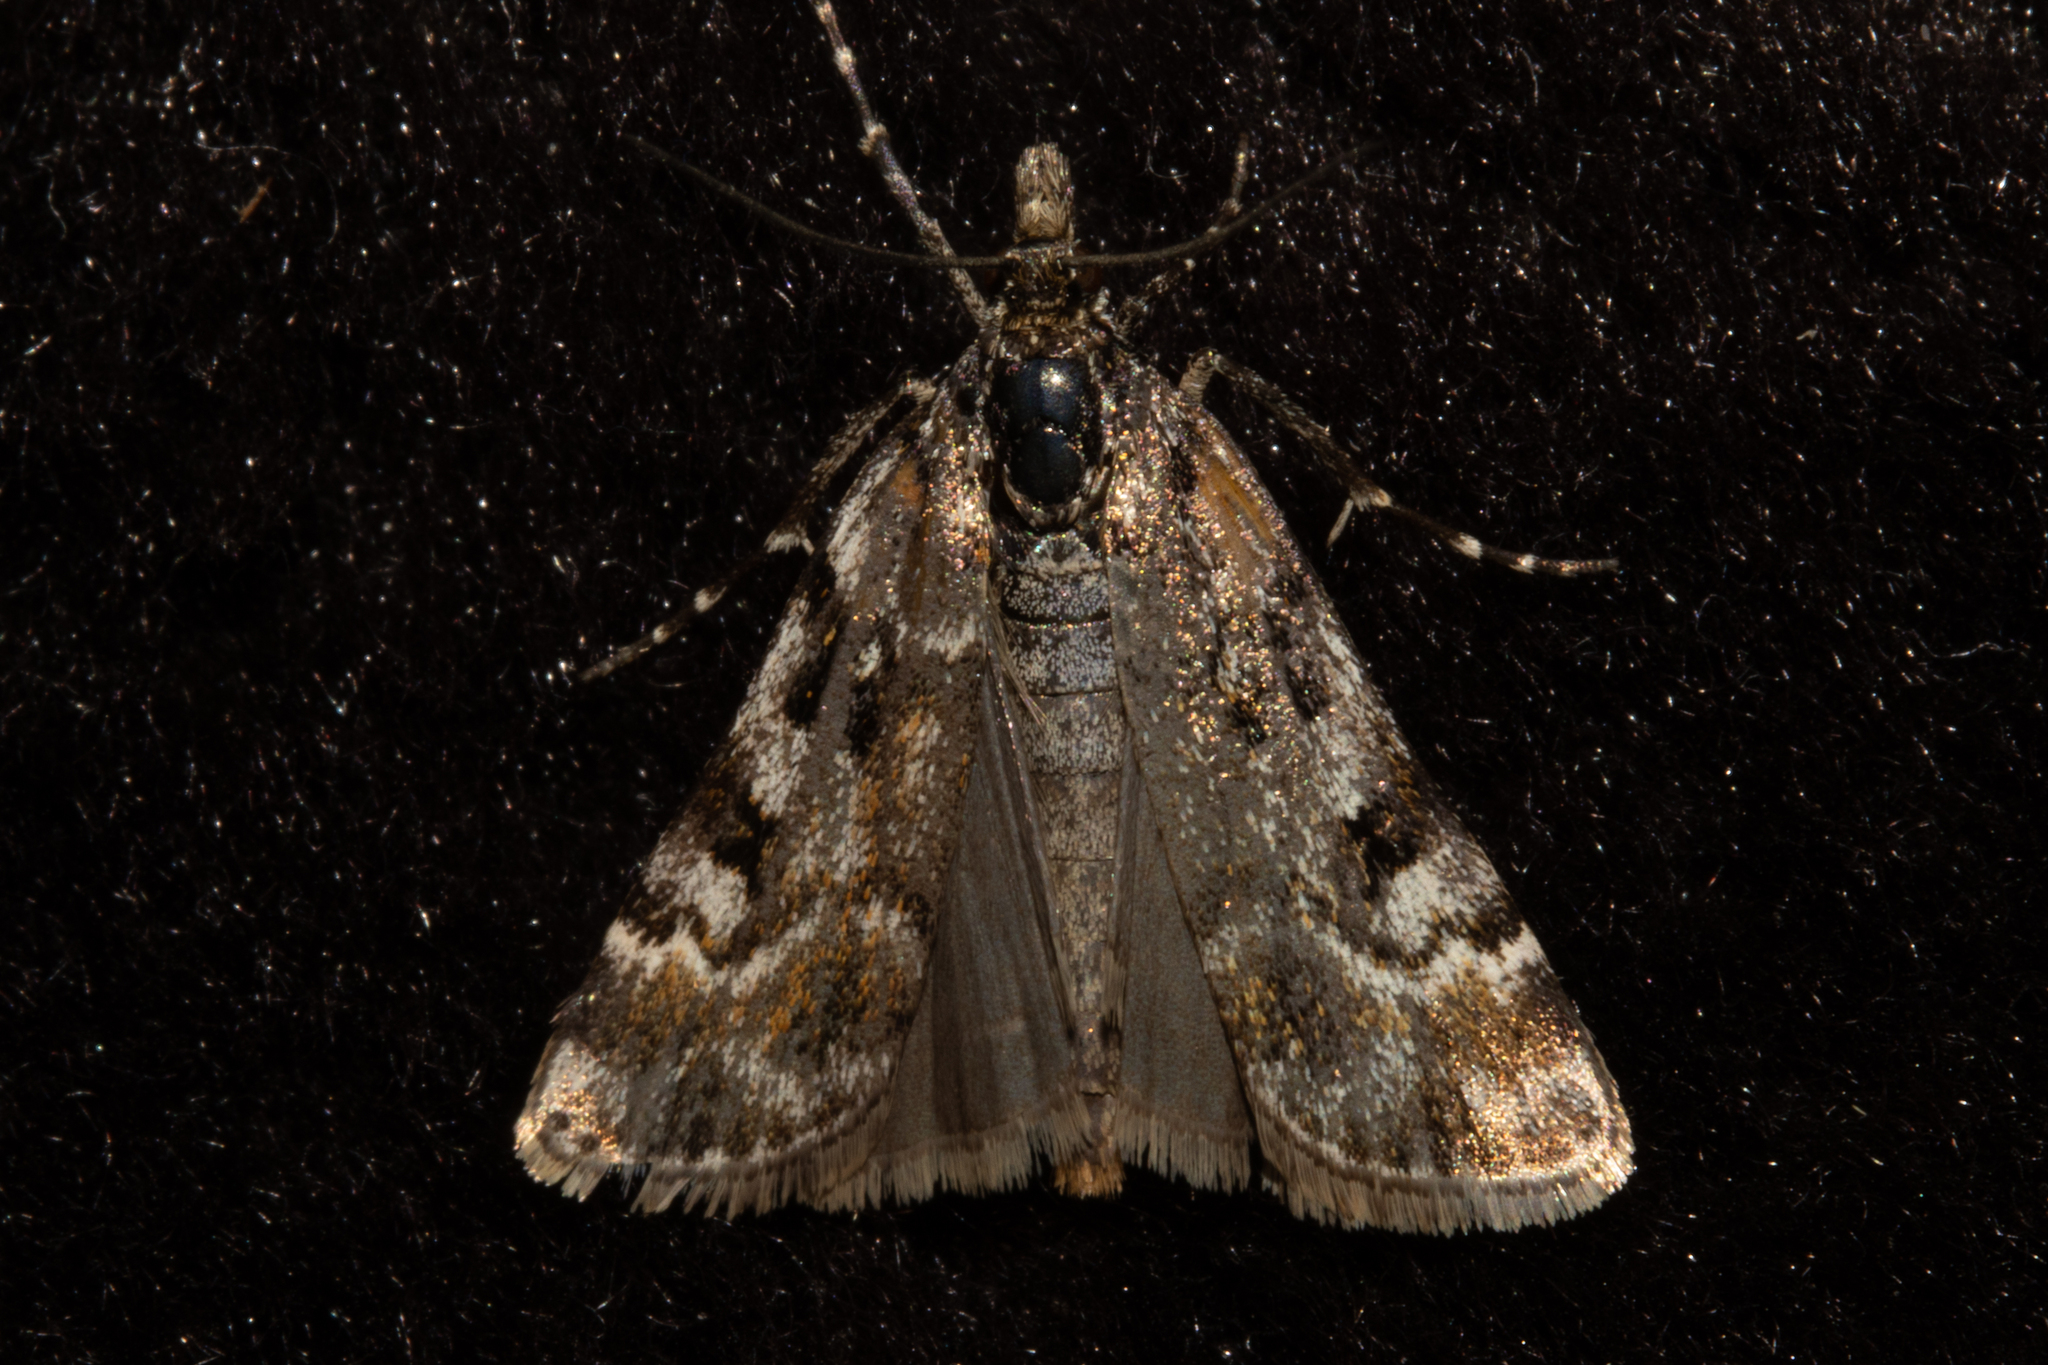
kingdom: Animalia
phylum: Arthropoda
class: Insecta
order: Lepidoptera
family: Crambidae
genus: Scoparia
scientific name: Scoparia famularis
